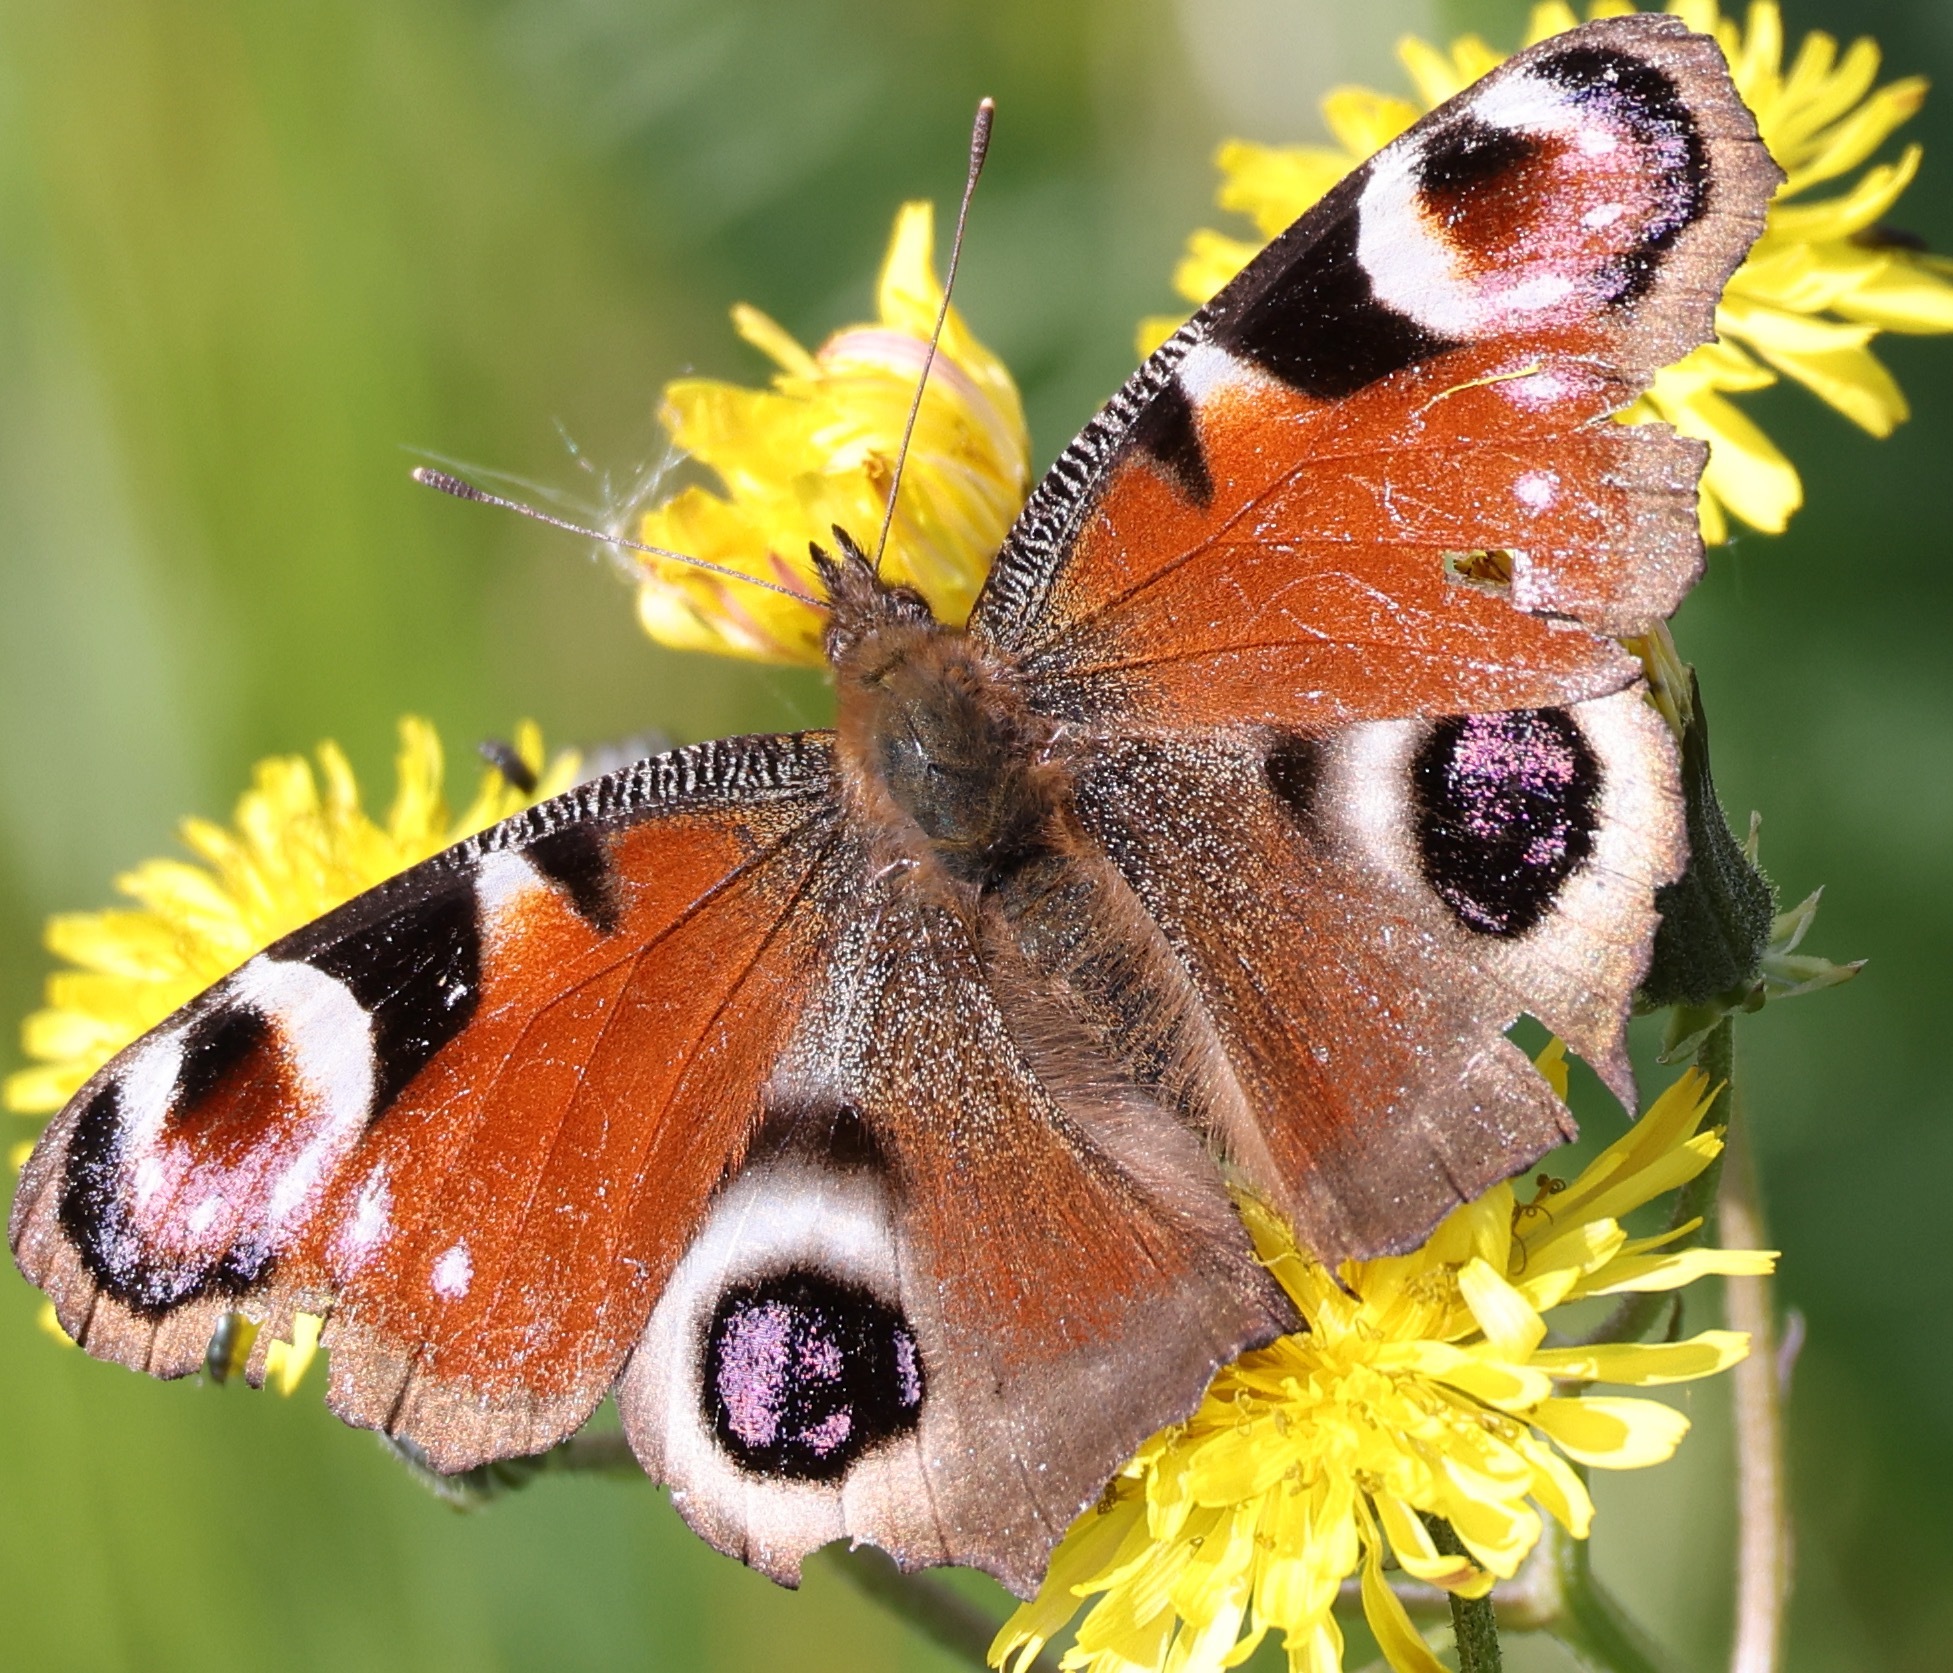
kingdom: Animalia
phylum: Arthropoda
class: Insecta
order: Lepidoptera
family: Nymphalidae
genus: Aglais
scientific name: Aglais io
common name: Peacock
